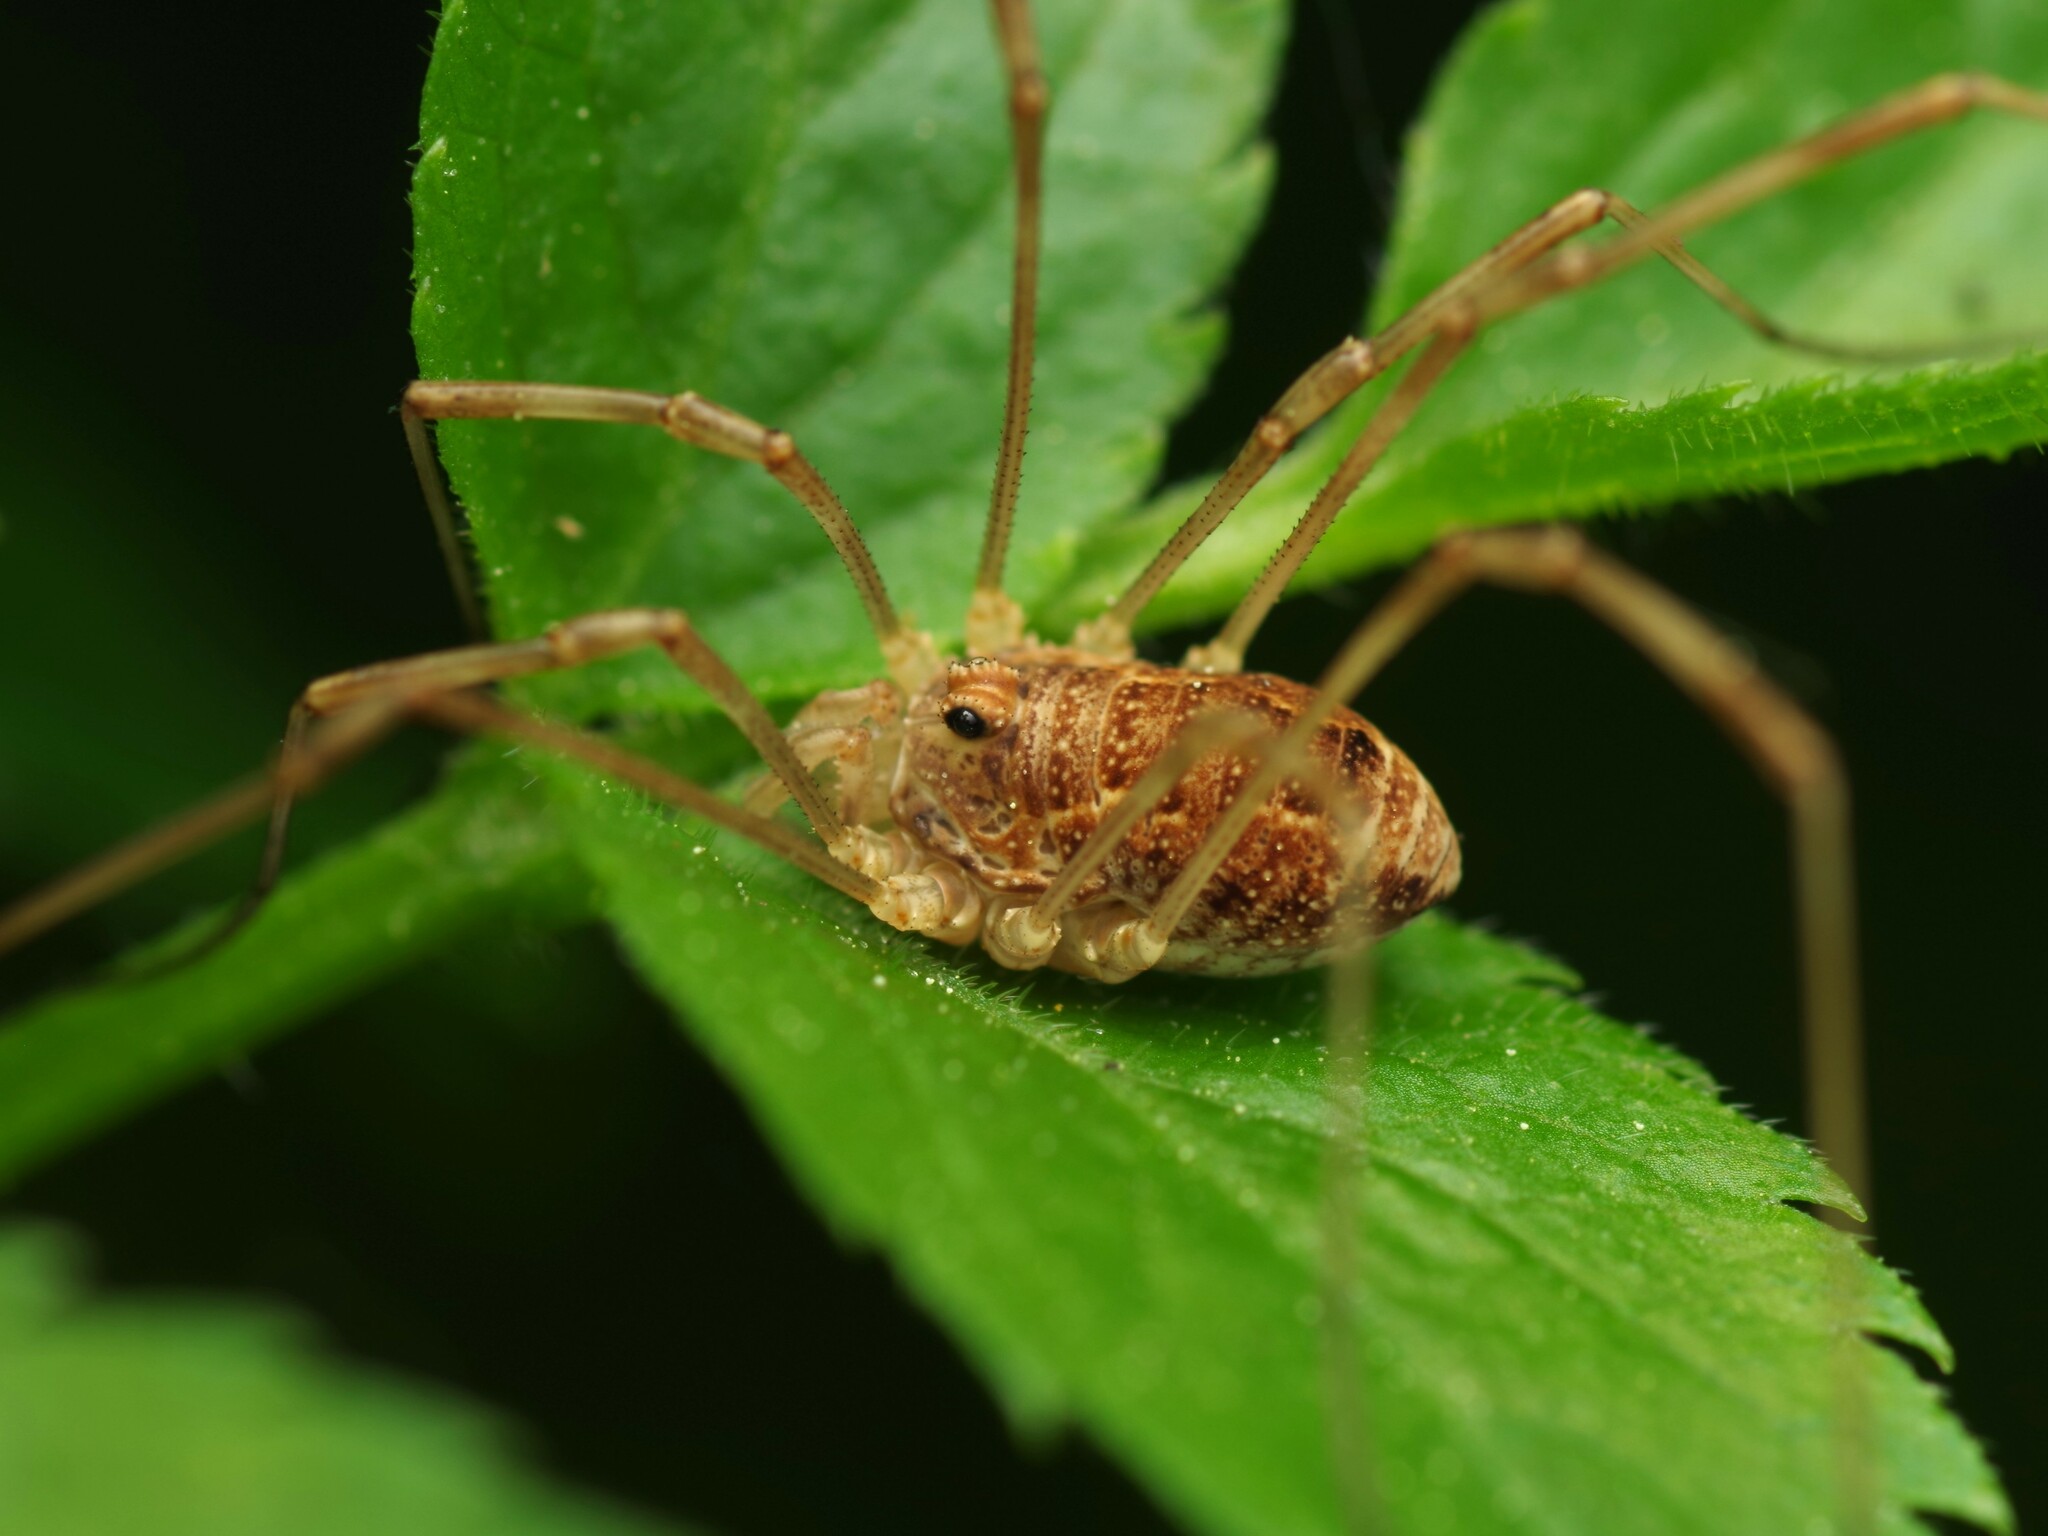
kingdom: Animalia
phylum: Arthropoda
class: Arachnida
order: Opiliones
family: Phalangiidae
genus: Rilaena
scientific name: Rilaena triangularis
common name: Spring harvestman
